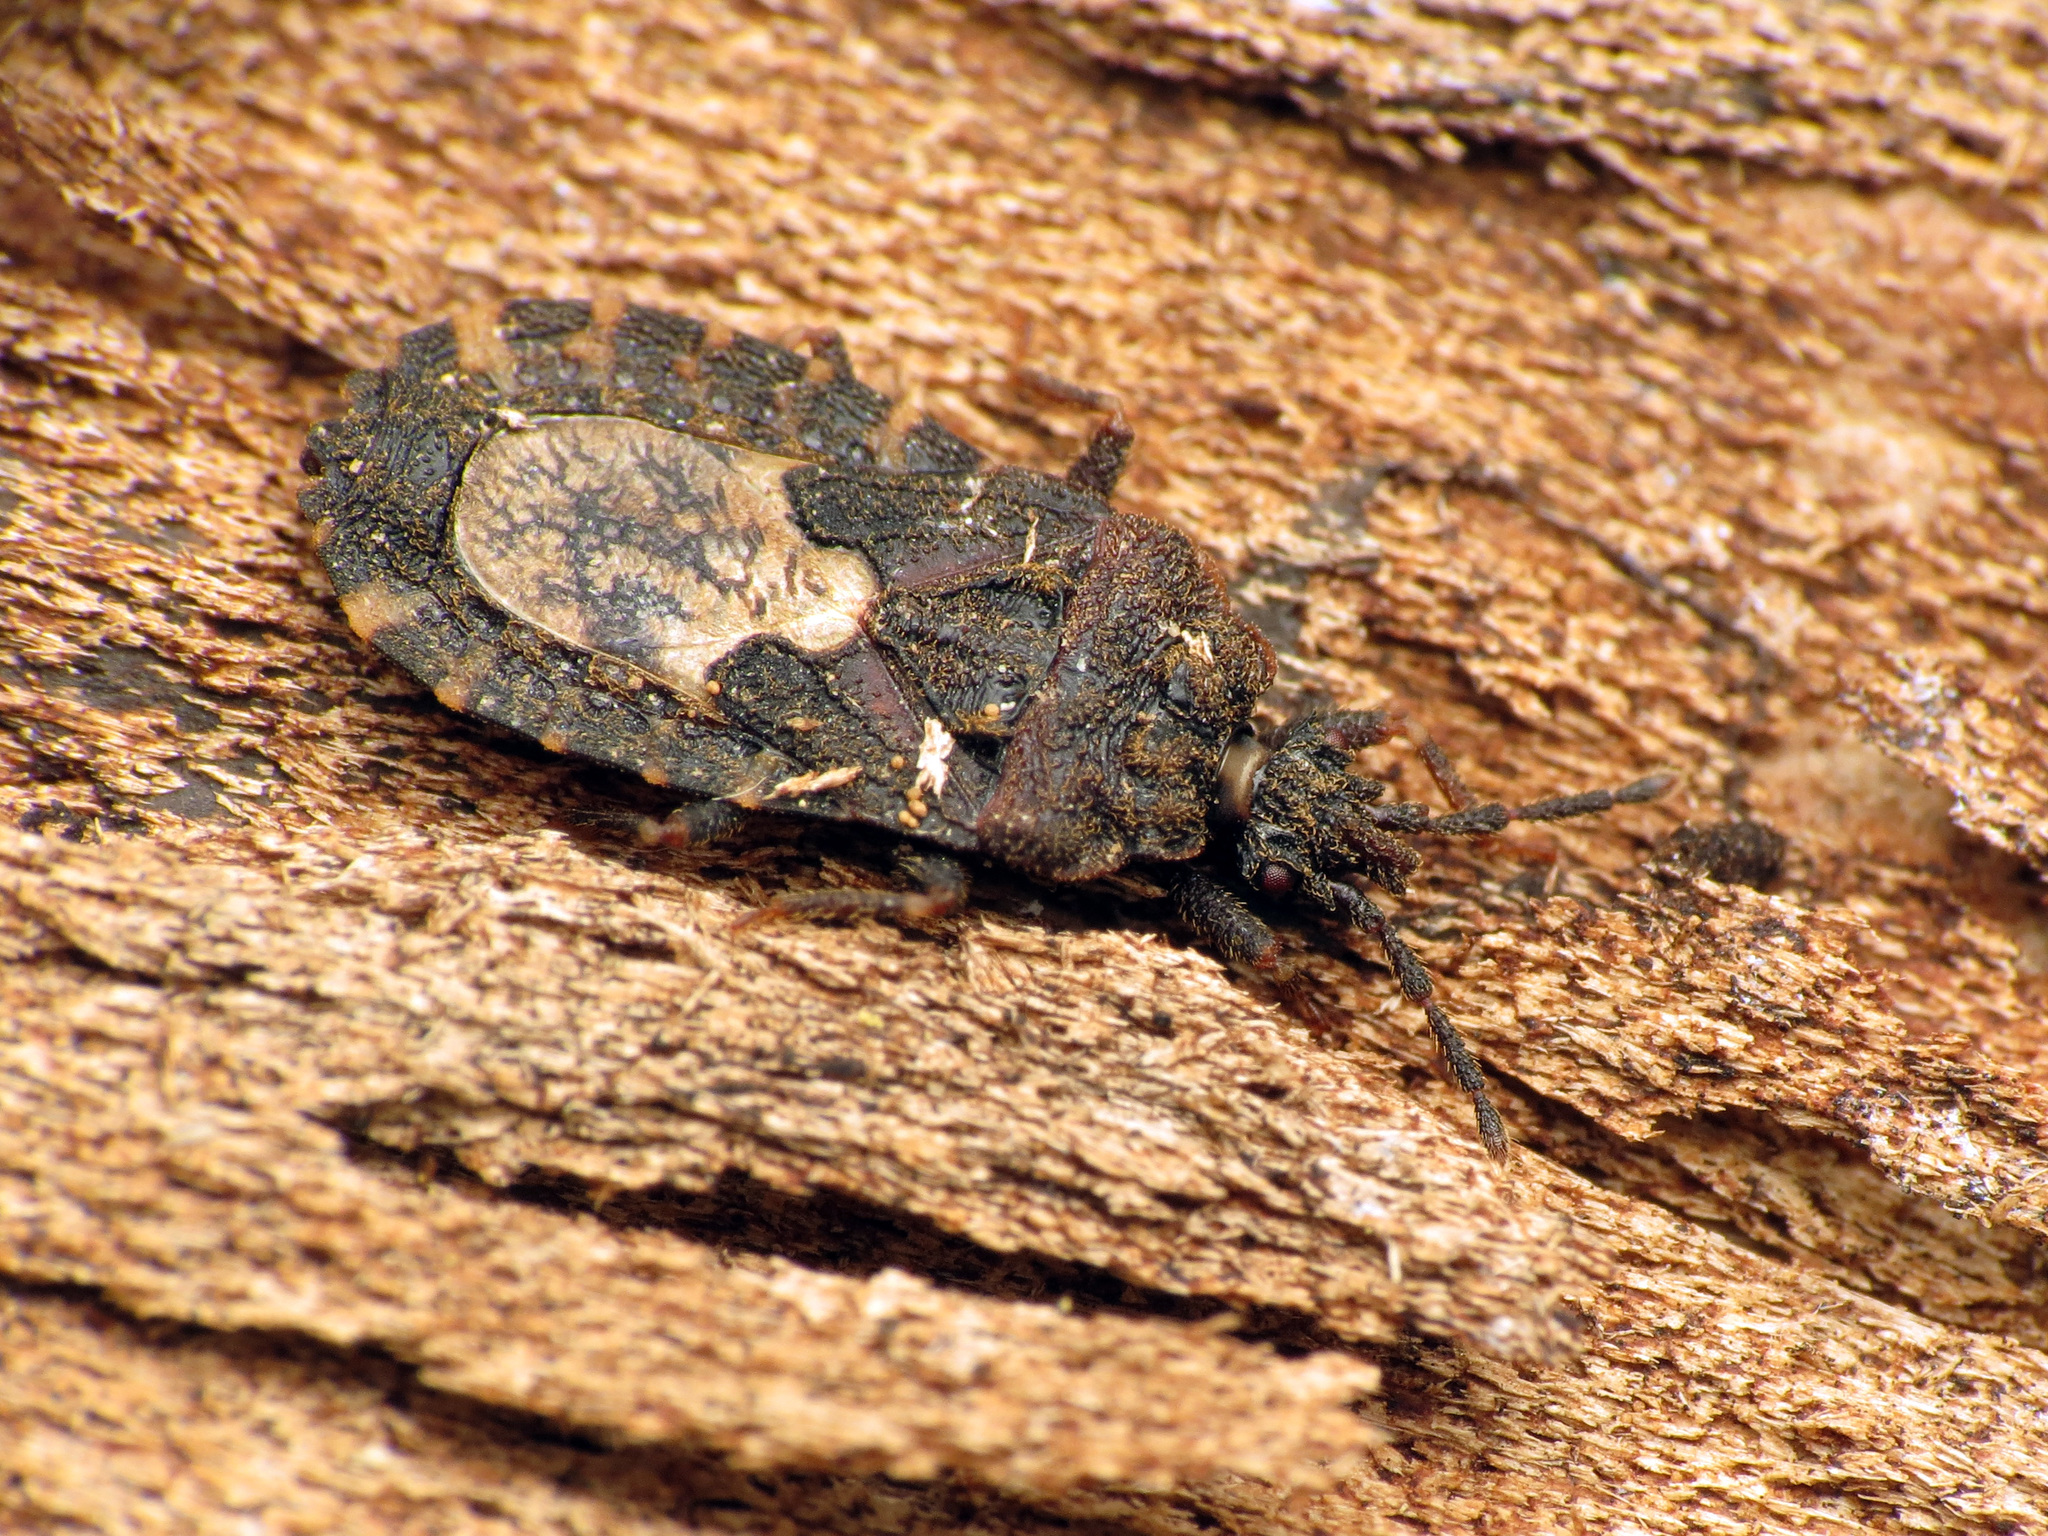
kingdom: Animalia
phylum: Arthropoda
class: Insecta
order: Hemiptera
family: Aradidae
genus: Mezira
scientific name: Mezira
